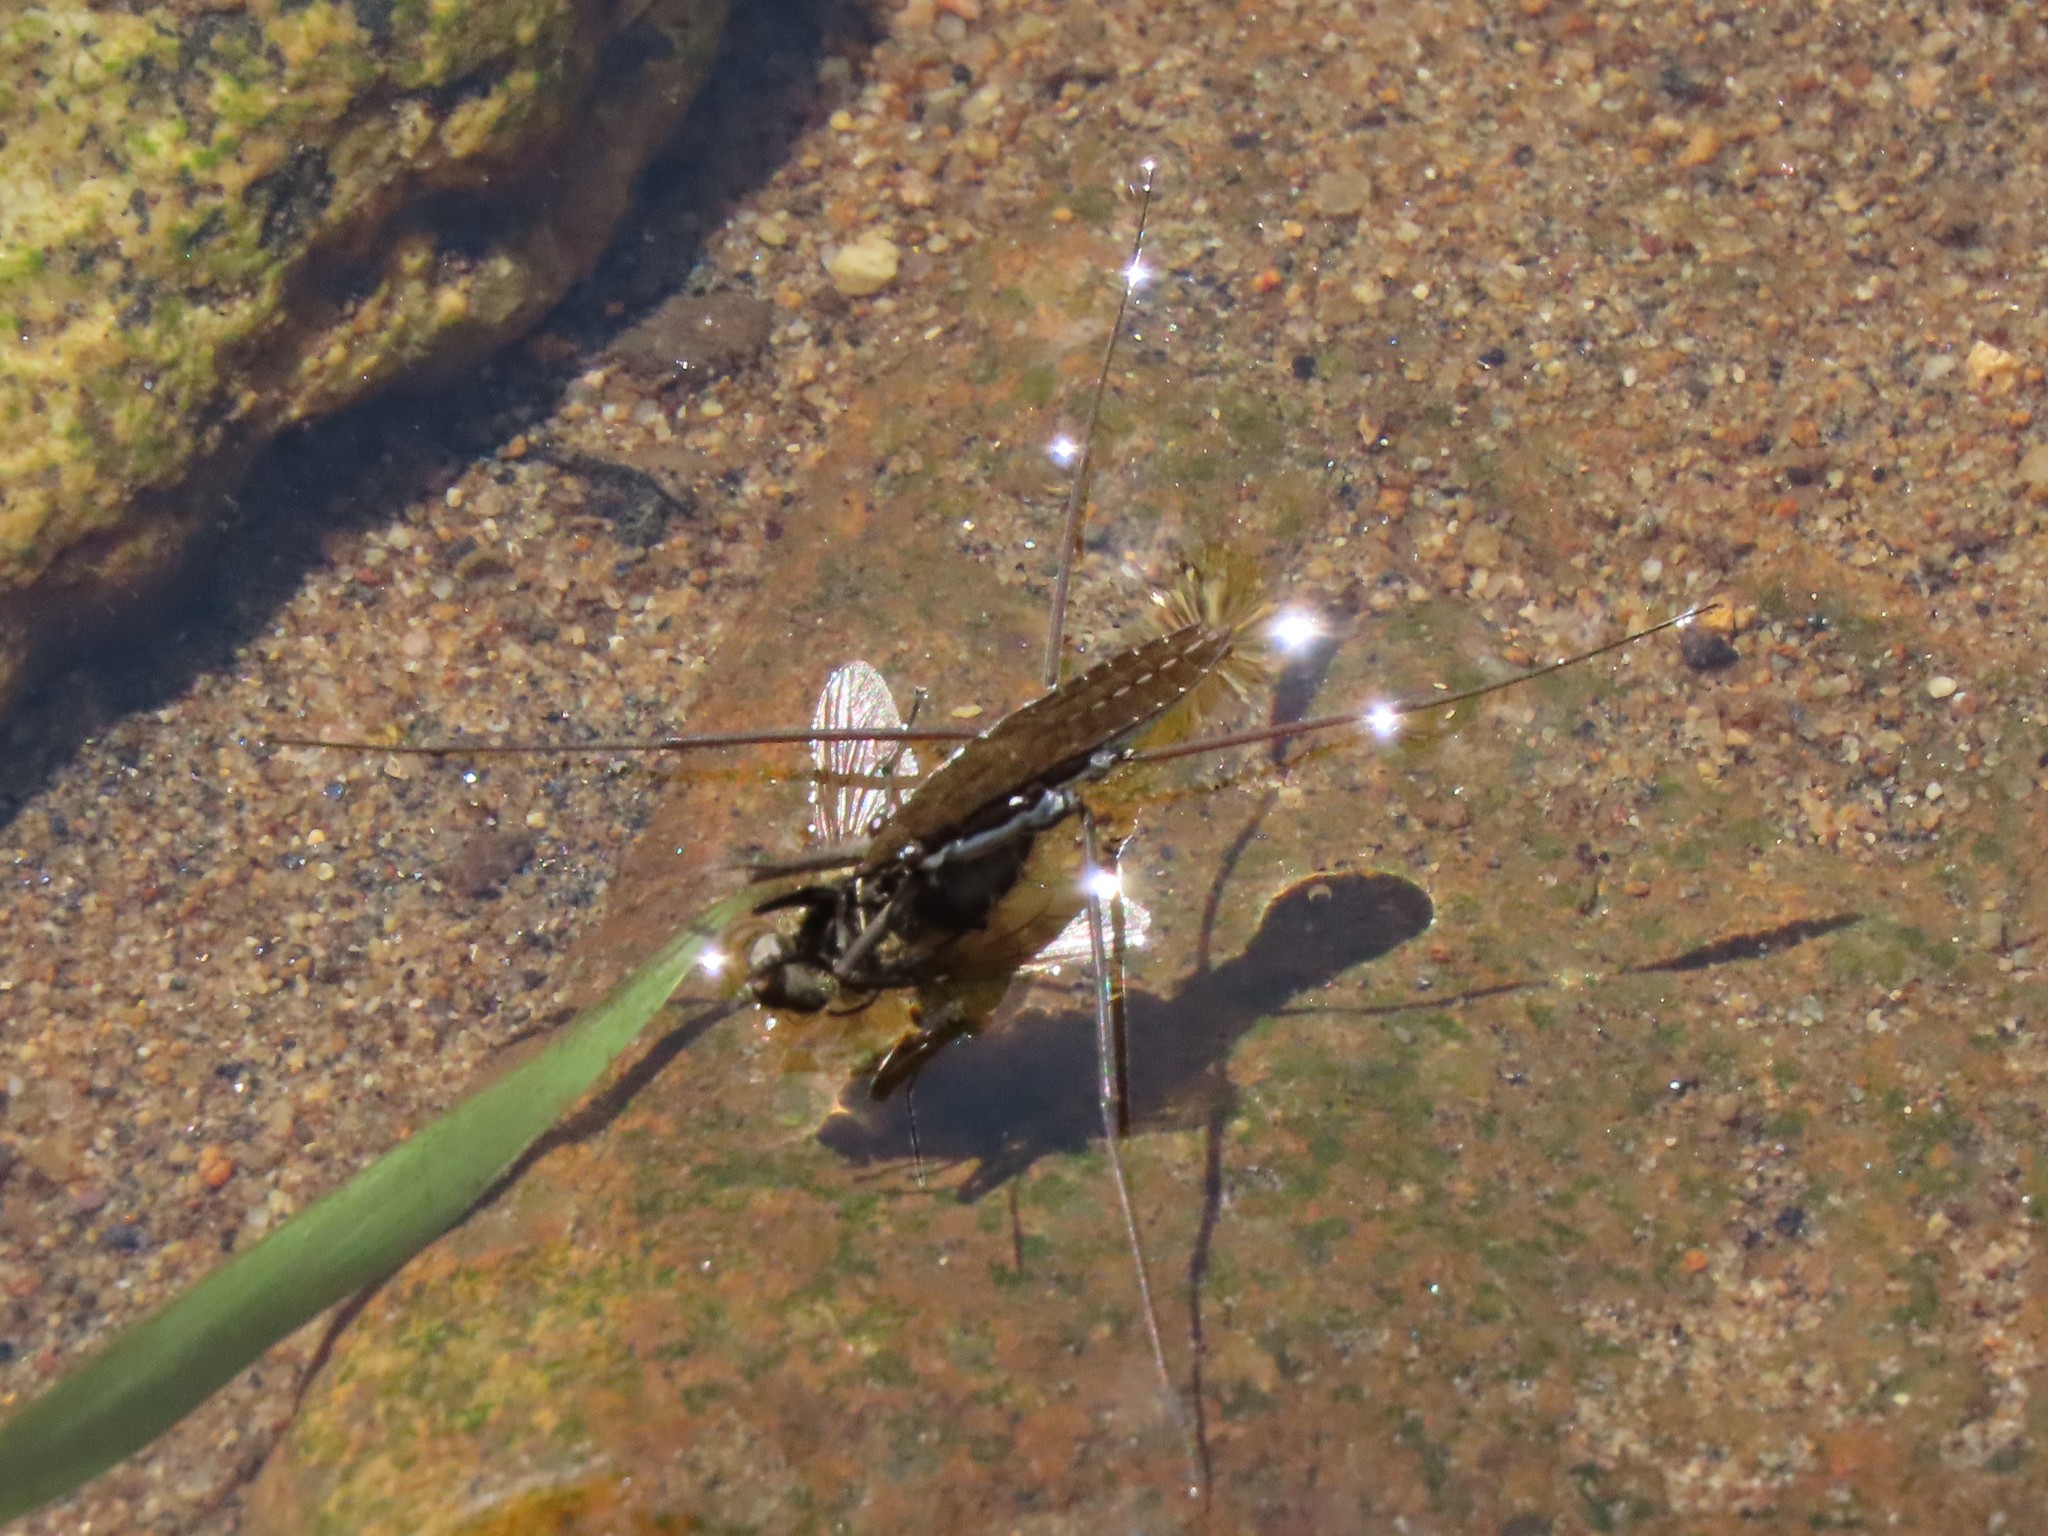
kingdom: Animalia
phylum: Arthropoda
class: Insecta
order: Hemiptera
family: Gerridae
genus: Aquarius
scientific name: Aquarius remigis
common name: Common water strider
